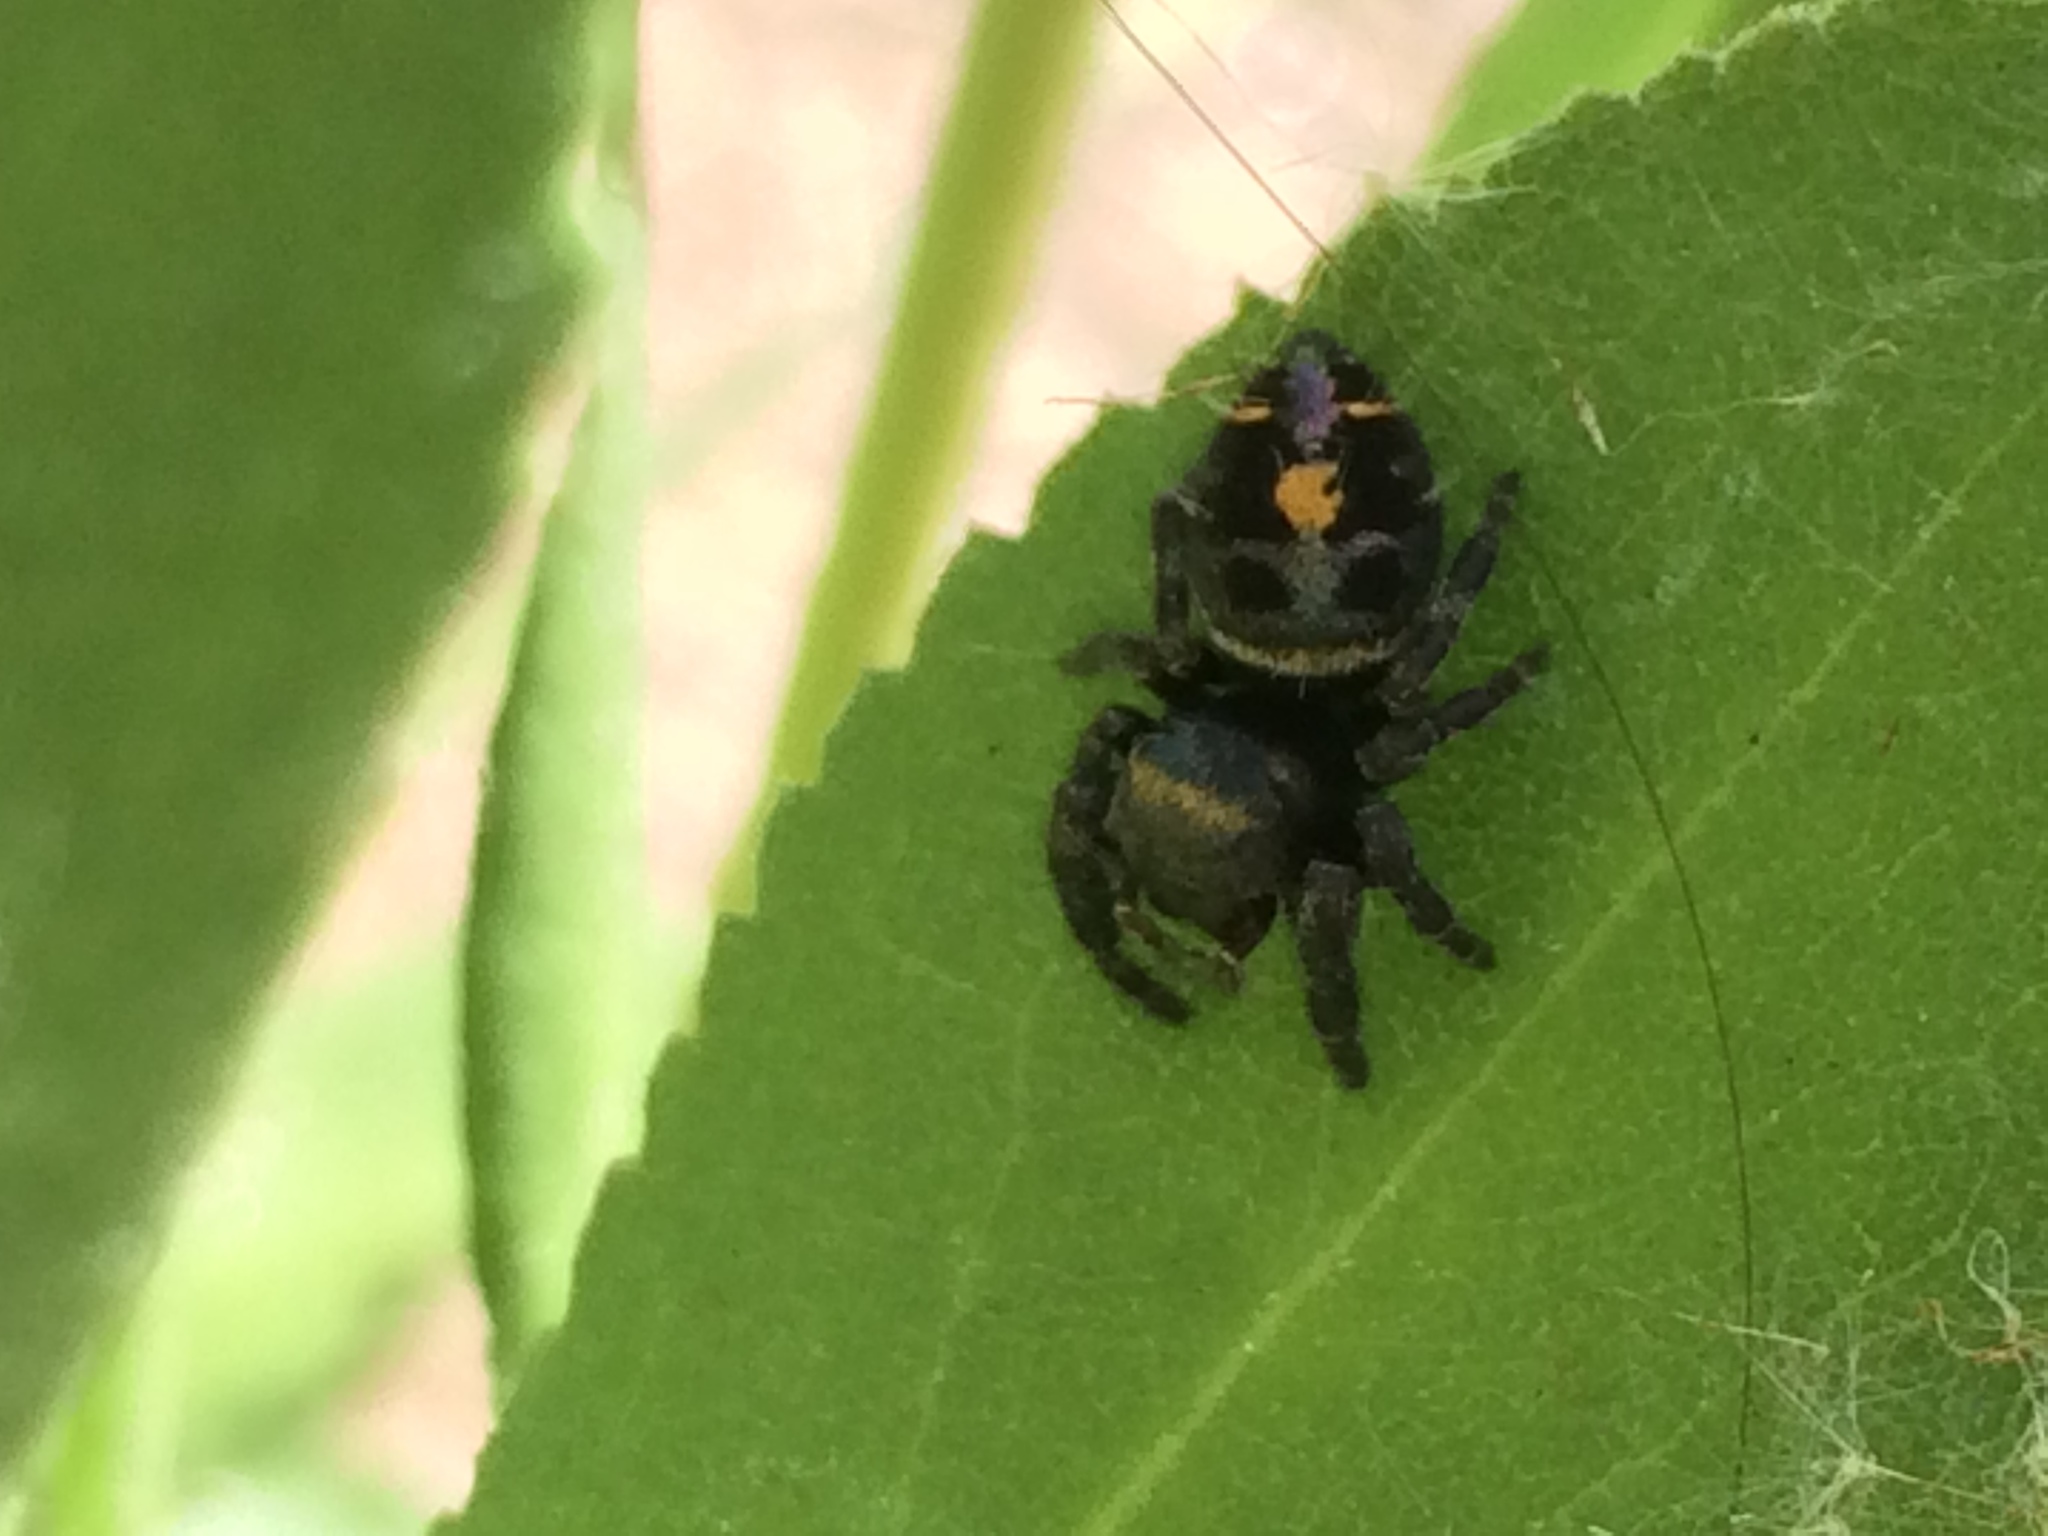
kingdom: Animalia
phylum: Arthropoda
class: Arachnida
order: Araneae
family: Salticidae
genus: Phidippus
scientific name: Phidippus audax
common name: Bold jumper
